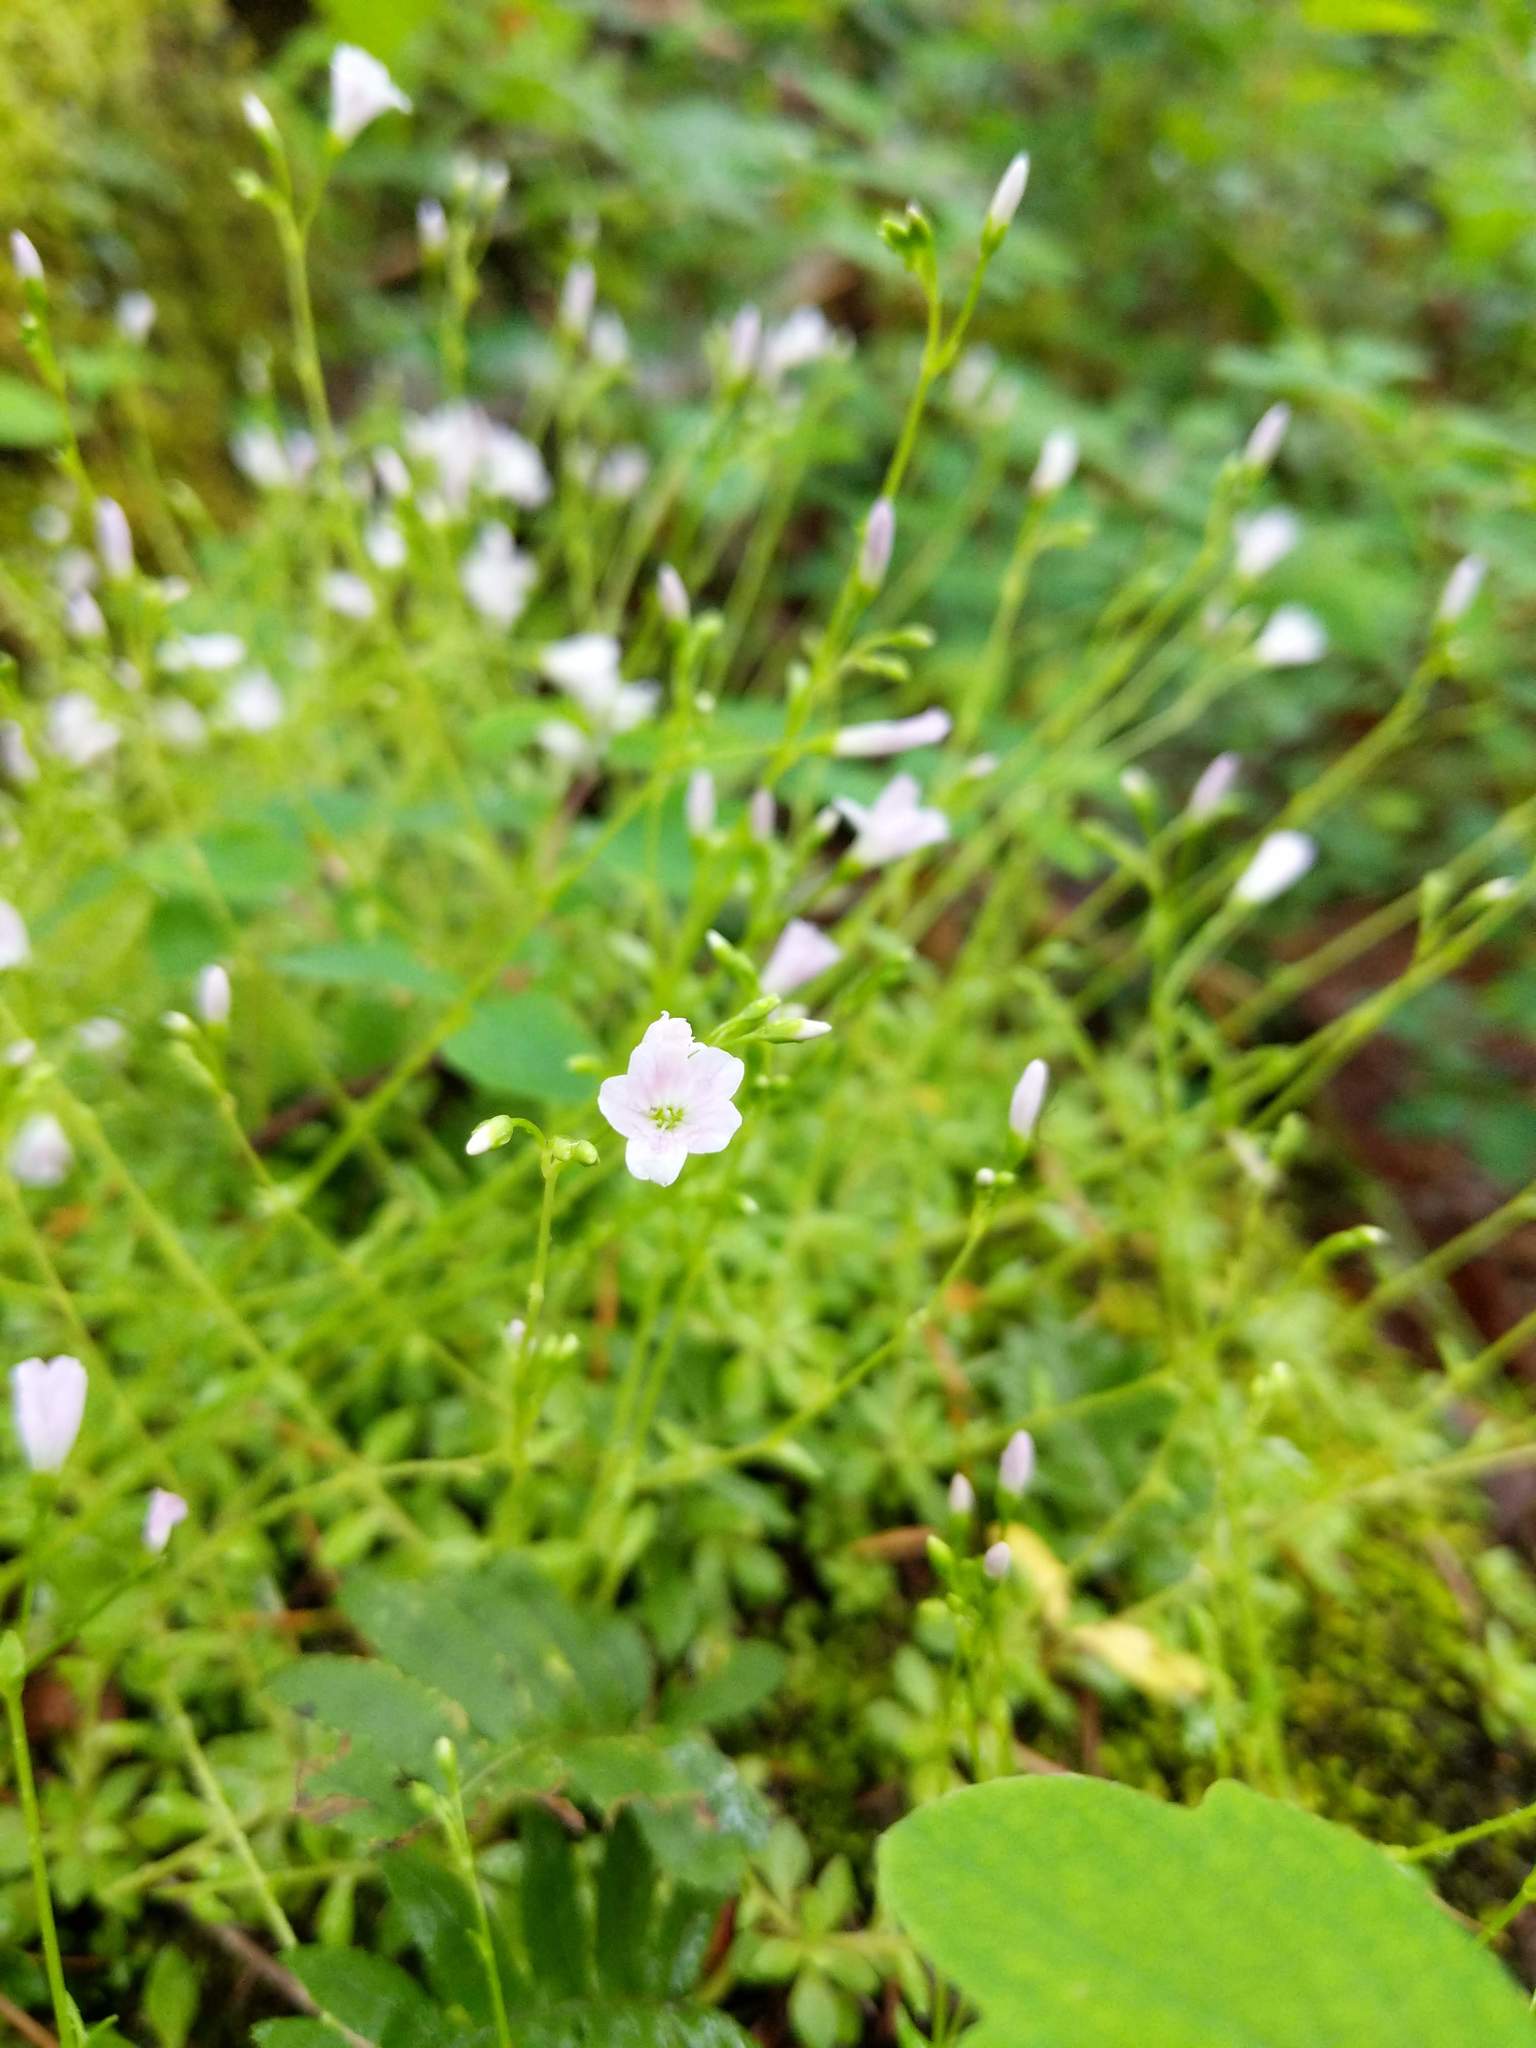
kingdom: Plantae
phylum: Tracheophyta
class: Magnoliopsida
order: Caryophyllales
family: Montiaceae
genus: Montia
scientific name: Montia parvifolia
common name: Small-leaved blinks
